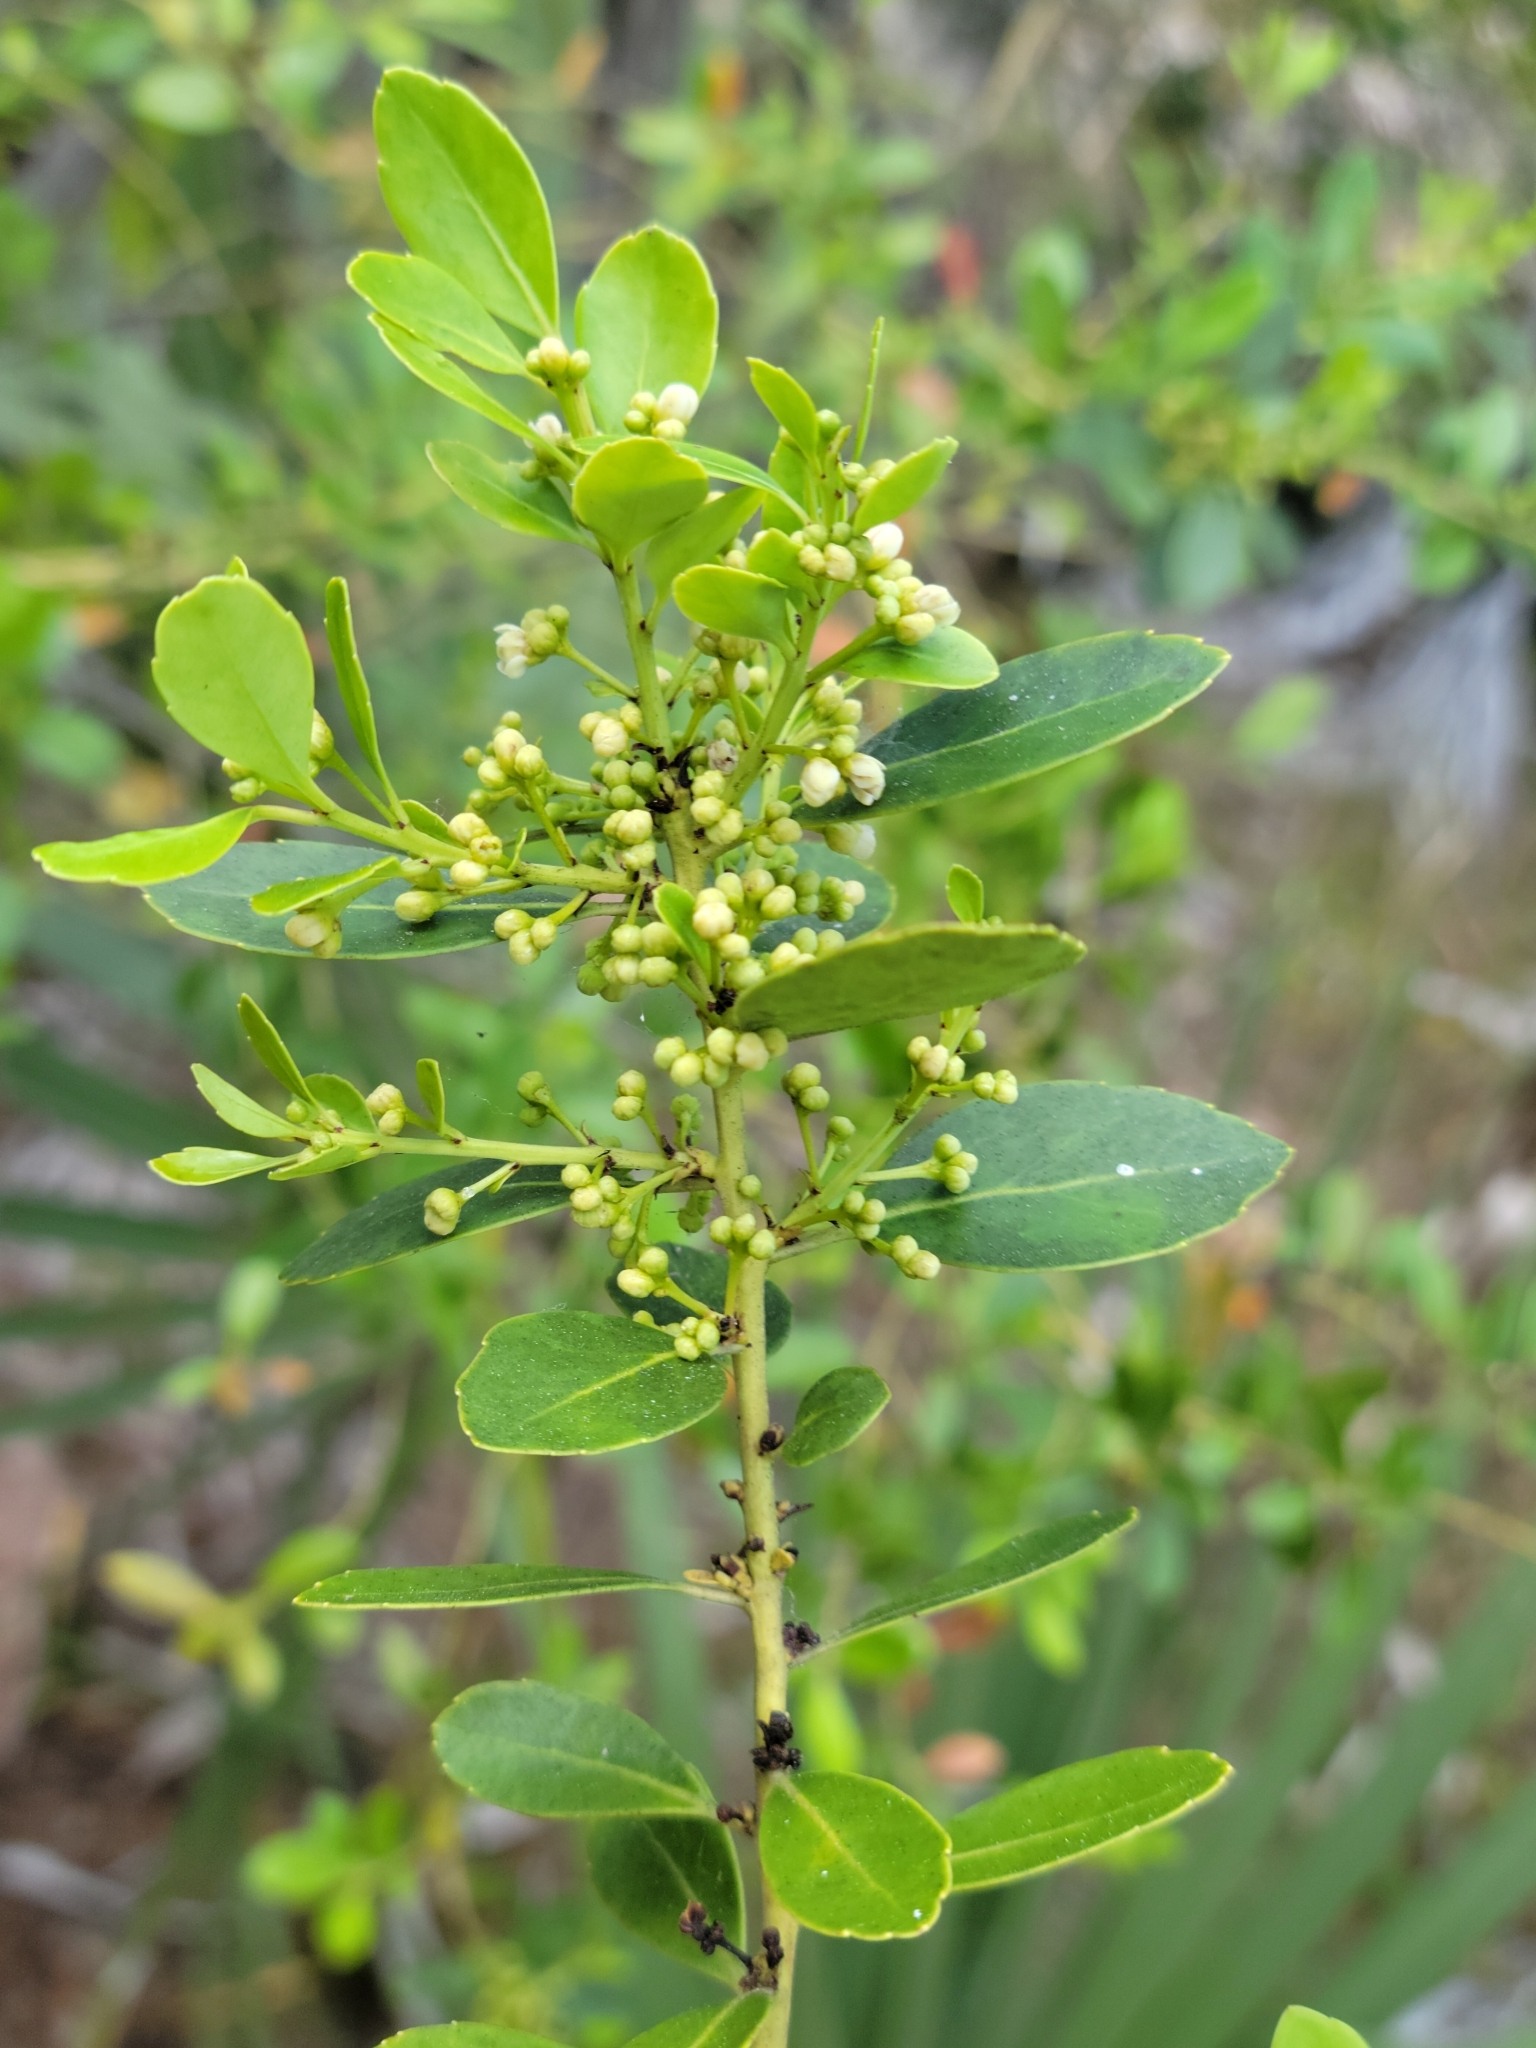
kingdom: Plantae
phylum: Tracheophyta
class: Magnoliopsida
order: Aquifoliales
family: Aquifoliaceae
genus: Ilex
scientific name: Ilex glabra
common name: Bitter gallberry
